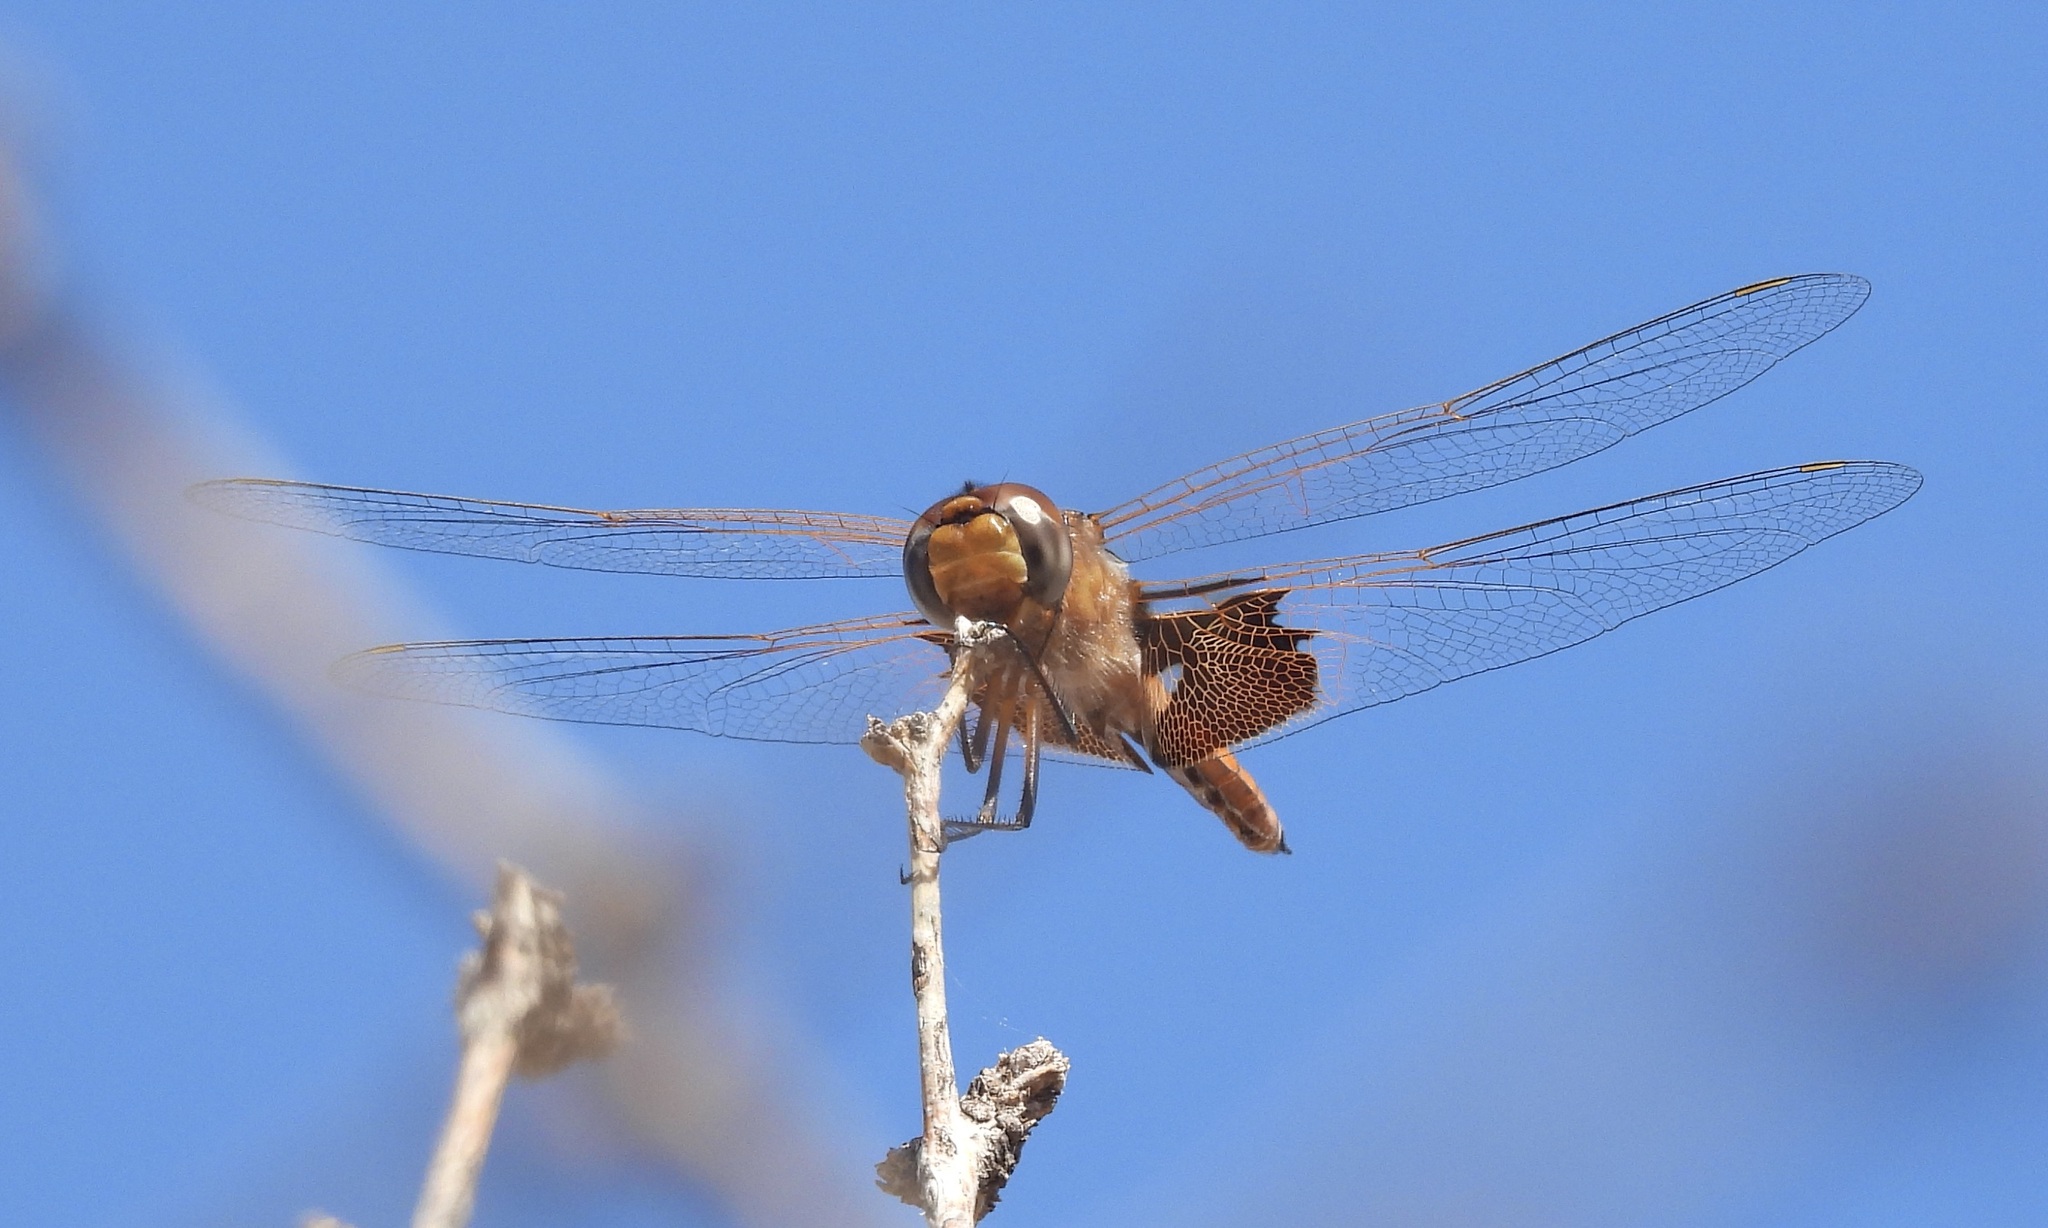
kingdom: Animalia
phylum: Arthropoda
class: Insecta
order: Odonata
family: Libellulidae
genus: Tramea
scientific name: Tramea onusta
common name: Red saddlebags
